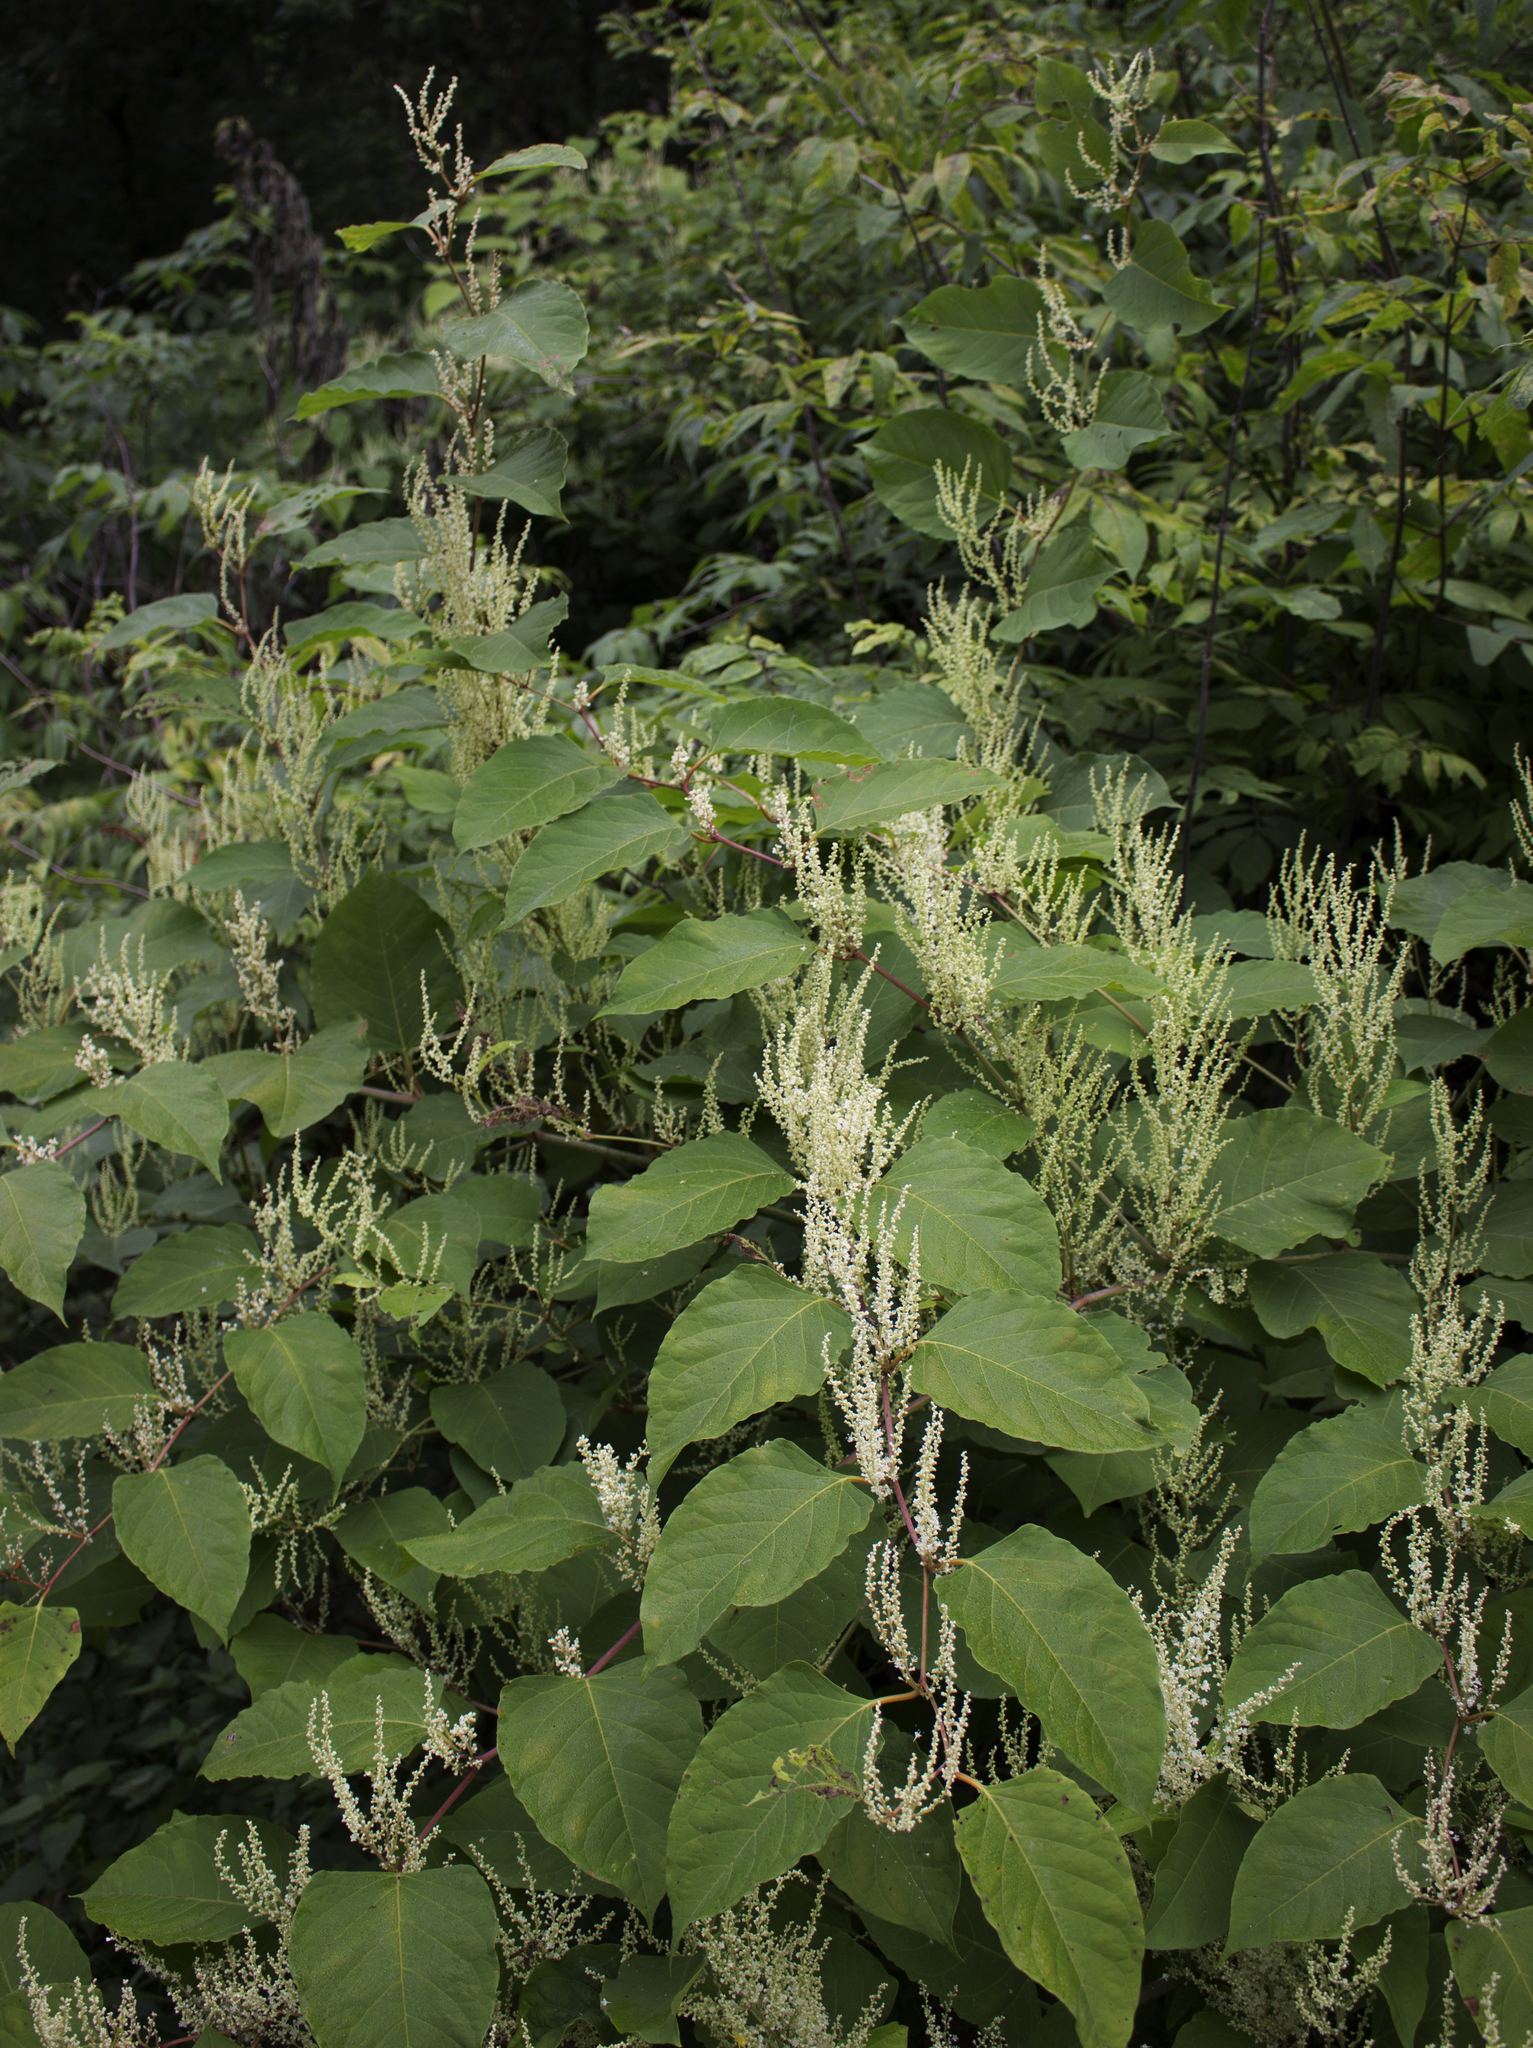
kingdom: Plantae
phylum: Tracheophyta
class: Magnoliopsida
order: Caryophyllales
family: Polygonaceae
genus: Reynoutria
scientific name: Reynoutria japonica
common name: Japanese knotweed
